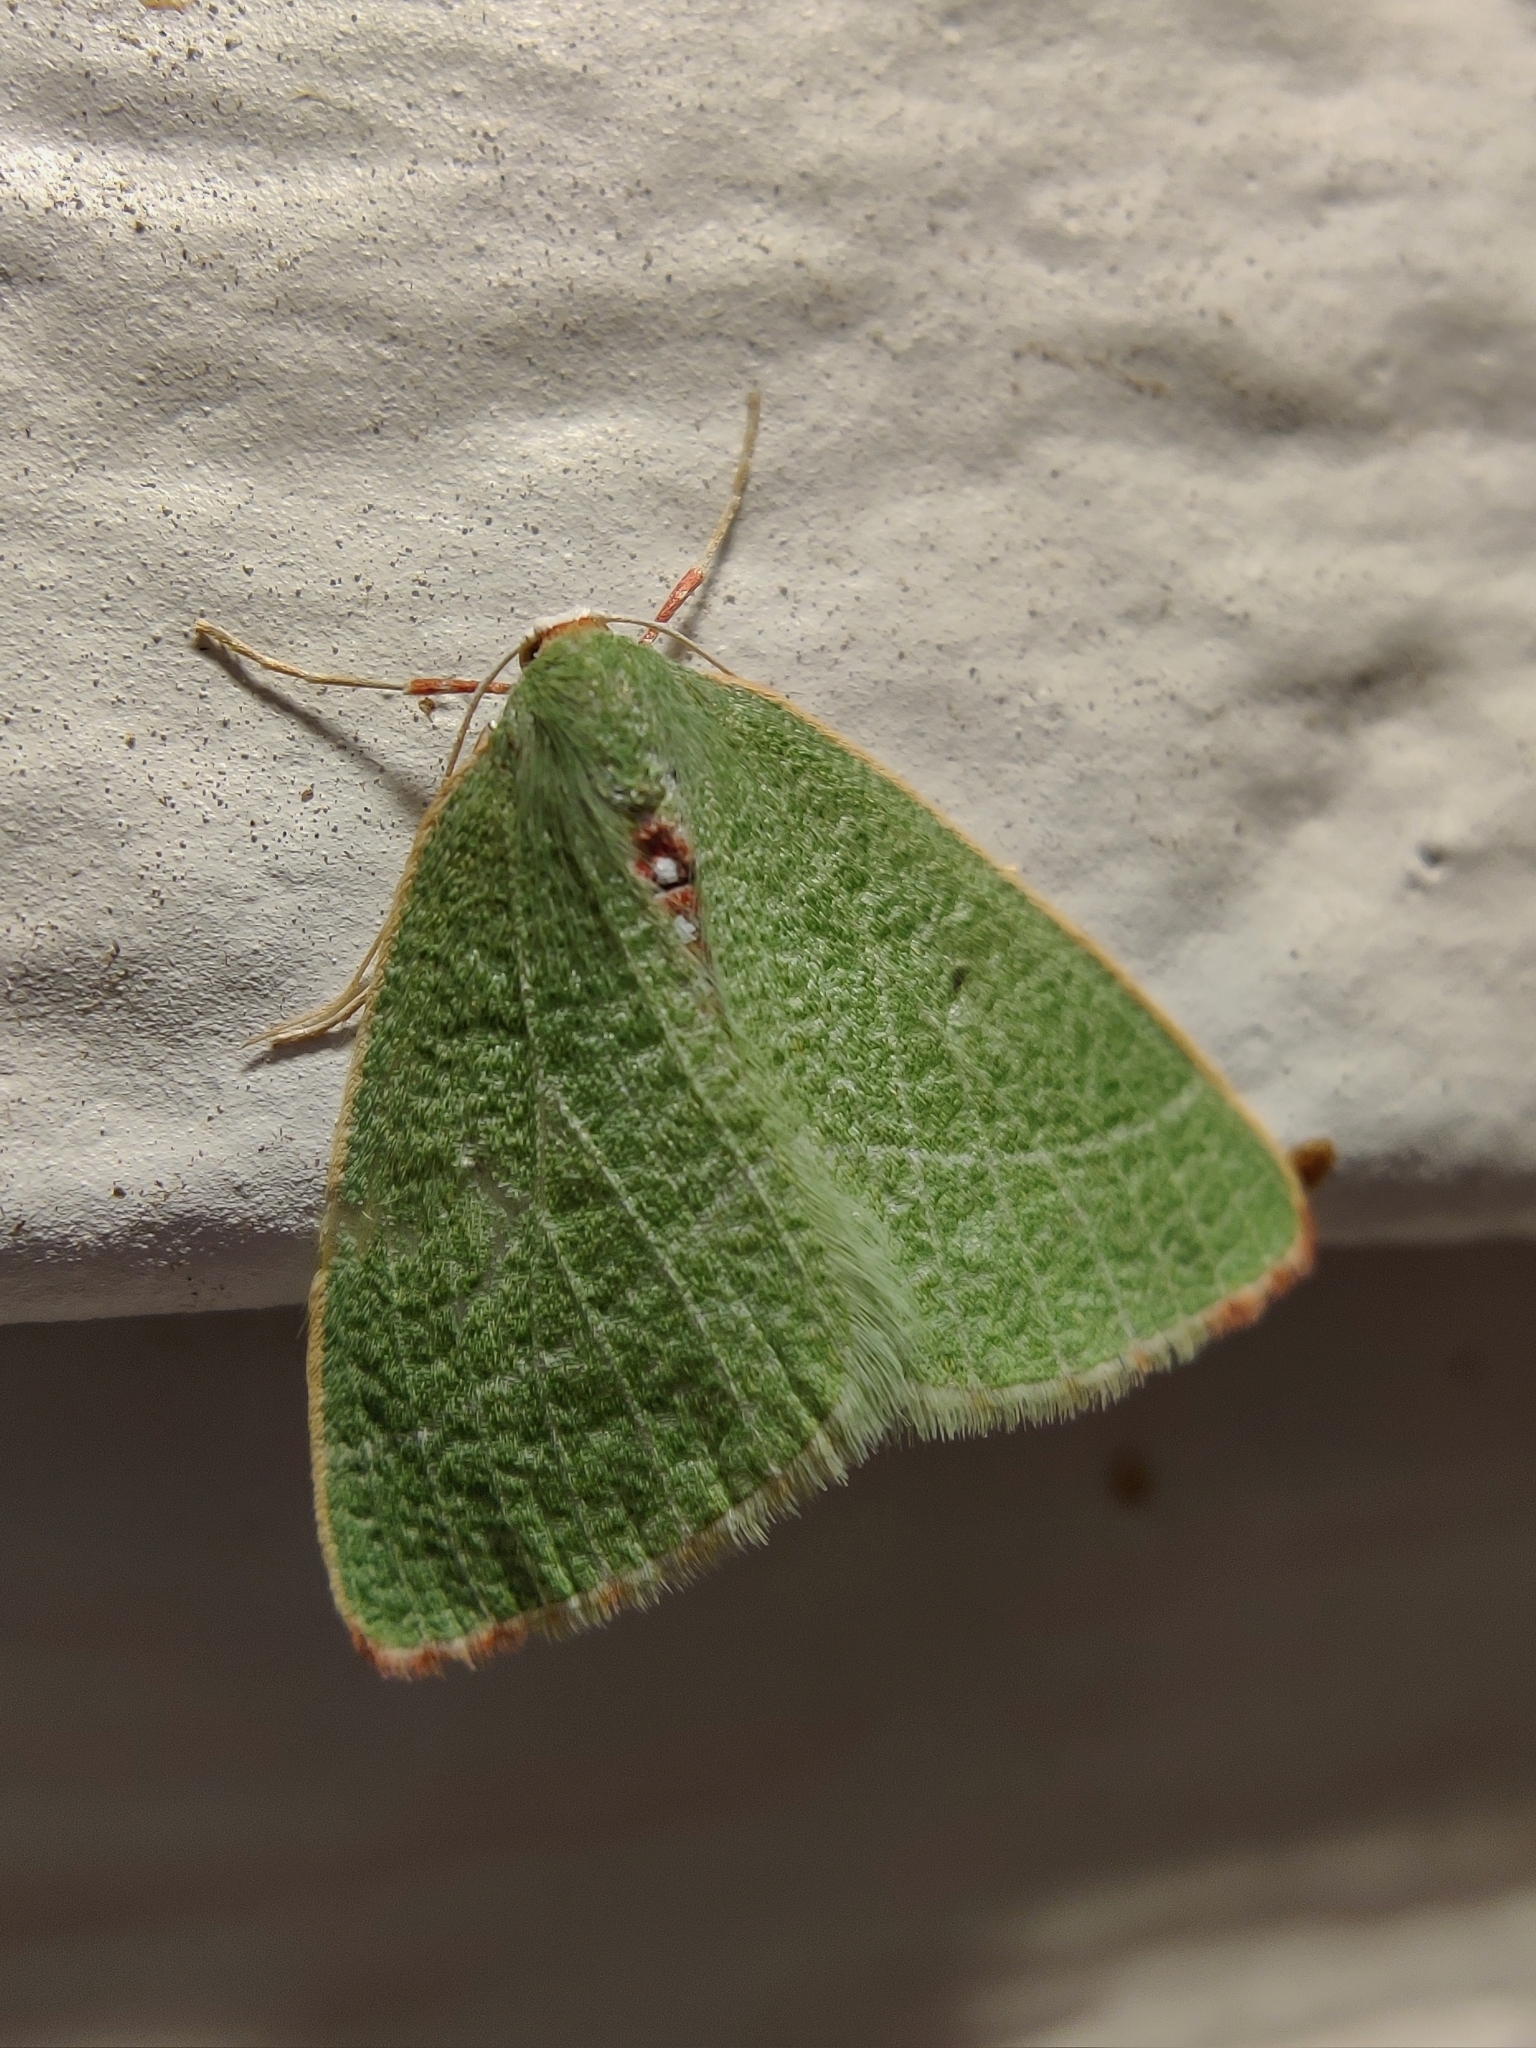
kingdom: Animalia
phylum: Arthropoda
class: Insecta
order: Lepidoptera
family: Geometridae
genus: Nemoria
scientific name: Nemoria pulcherrima
